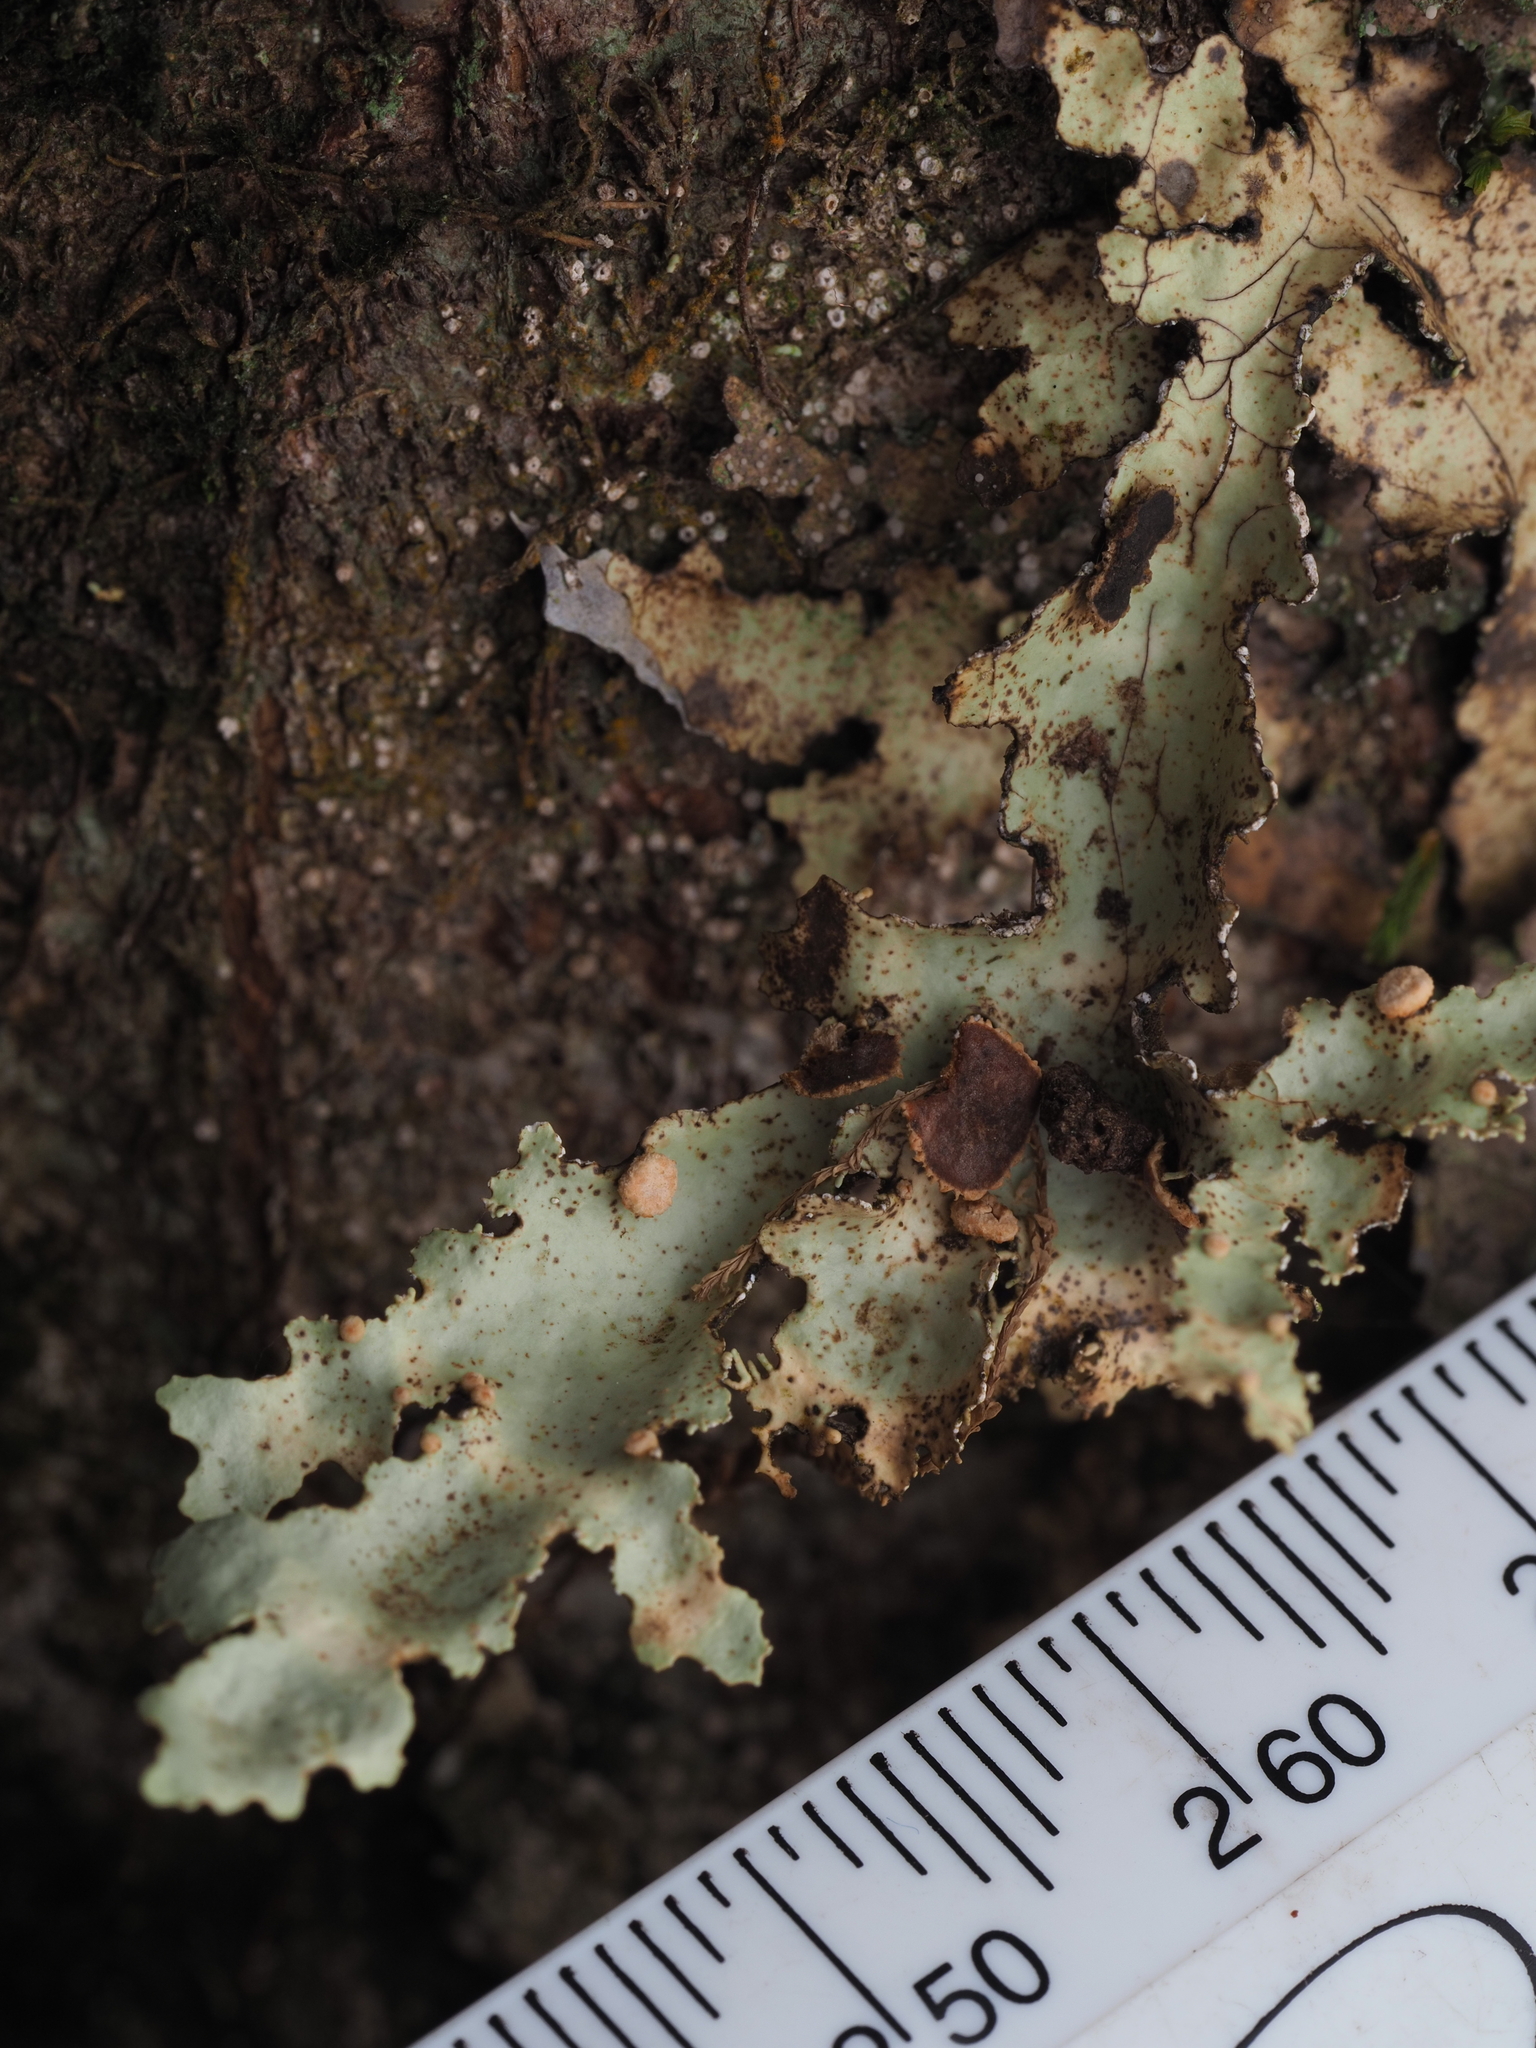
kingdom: Fungi
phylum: Ascomycota
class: Lecanoromycetes
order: Peltigerales
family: Lobariaceae
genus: Pseudocyphellaria
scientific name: Pseudocyphellaria glabra
